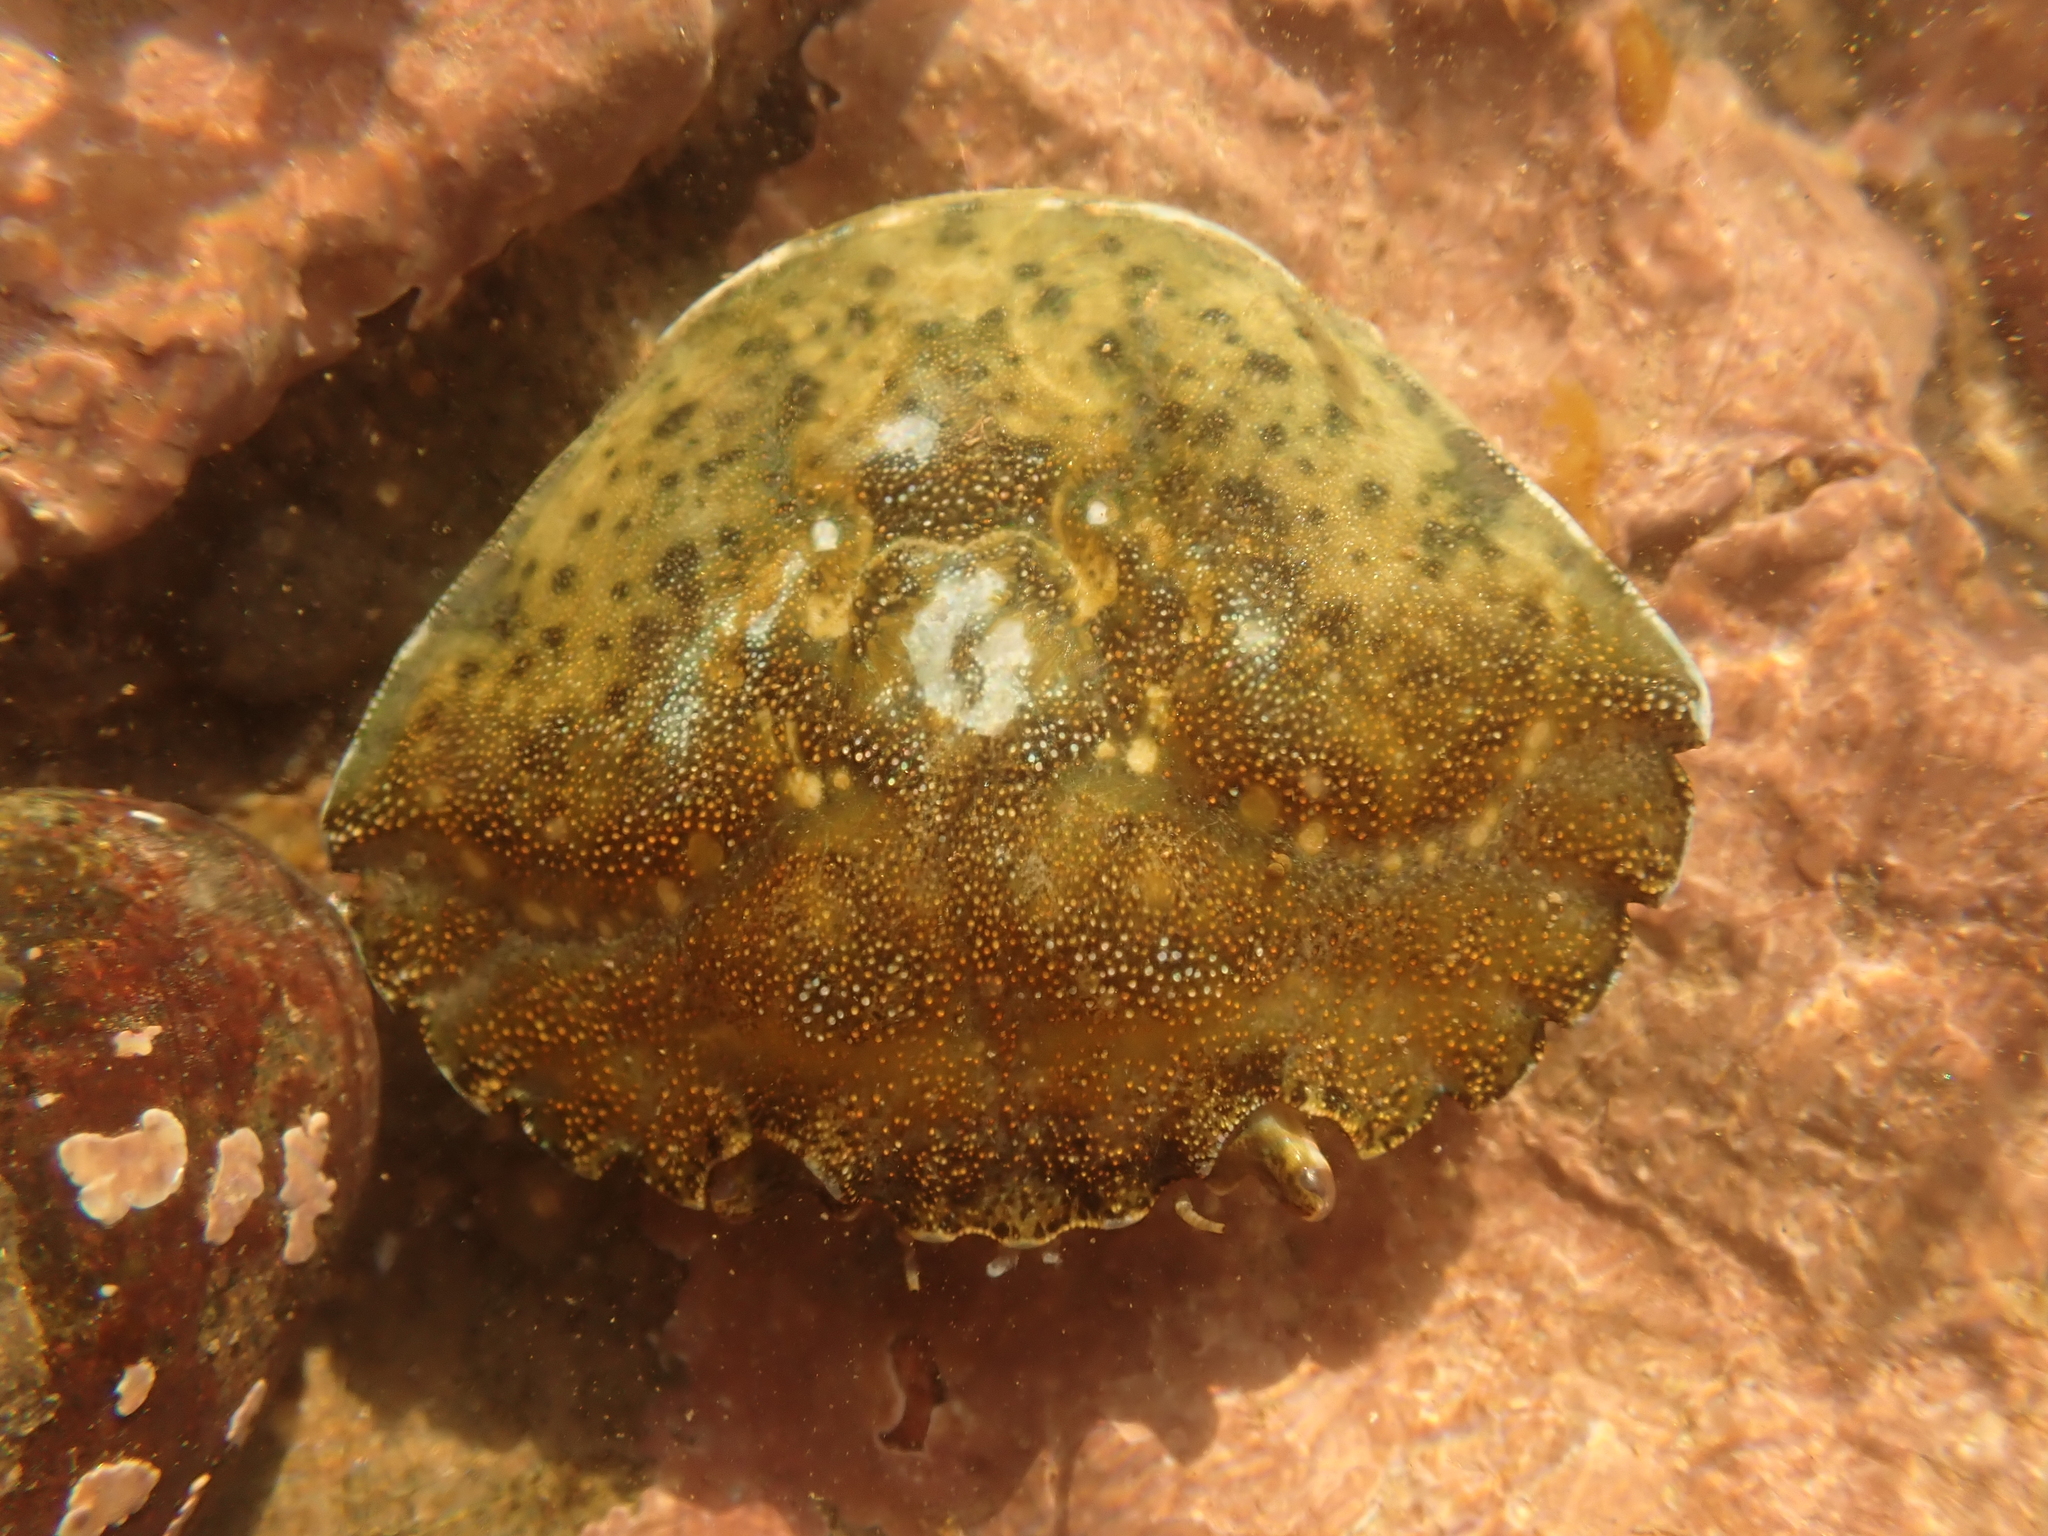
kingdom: Animalia
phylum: Arthropoda
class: Malacostraca
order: Decapoda
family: Carcinidae
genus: Carcinus
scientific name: Carcinus maenas
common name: European green crab
